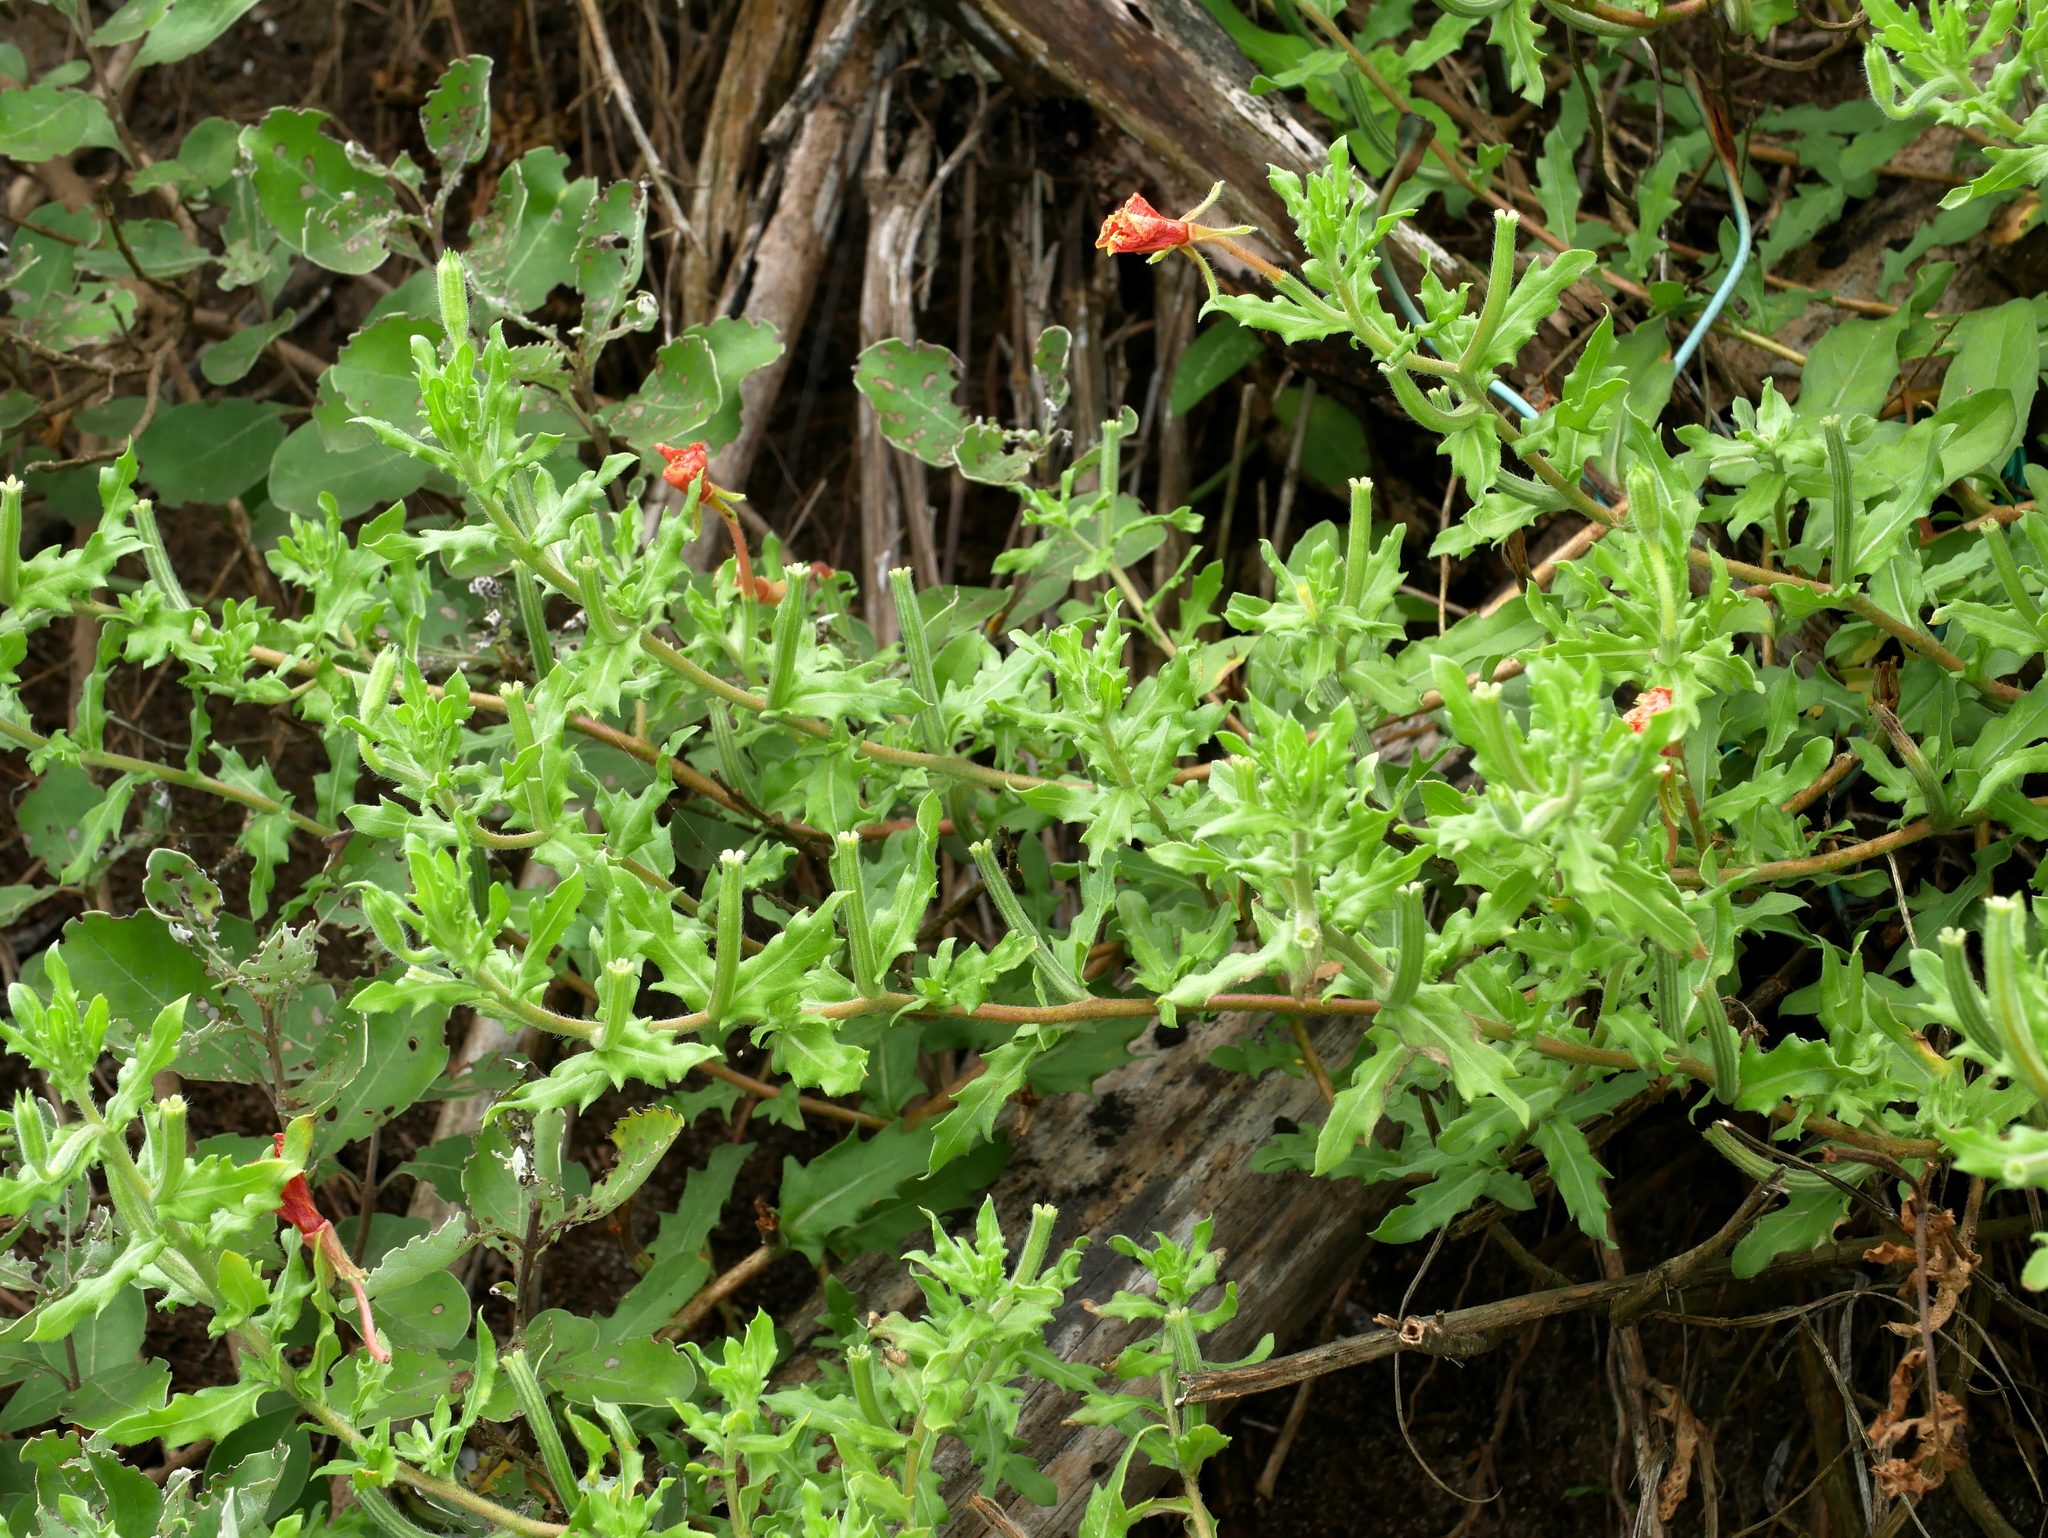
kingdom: Plantae
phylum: Tracheophyta
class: Magnoliopsida
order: Myrtales
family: Onagraceae
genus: Oenothera
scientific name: Oenothera laciniata
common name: Cut-leaved evening-primrose
